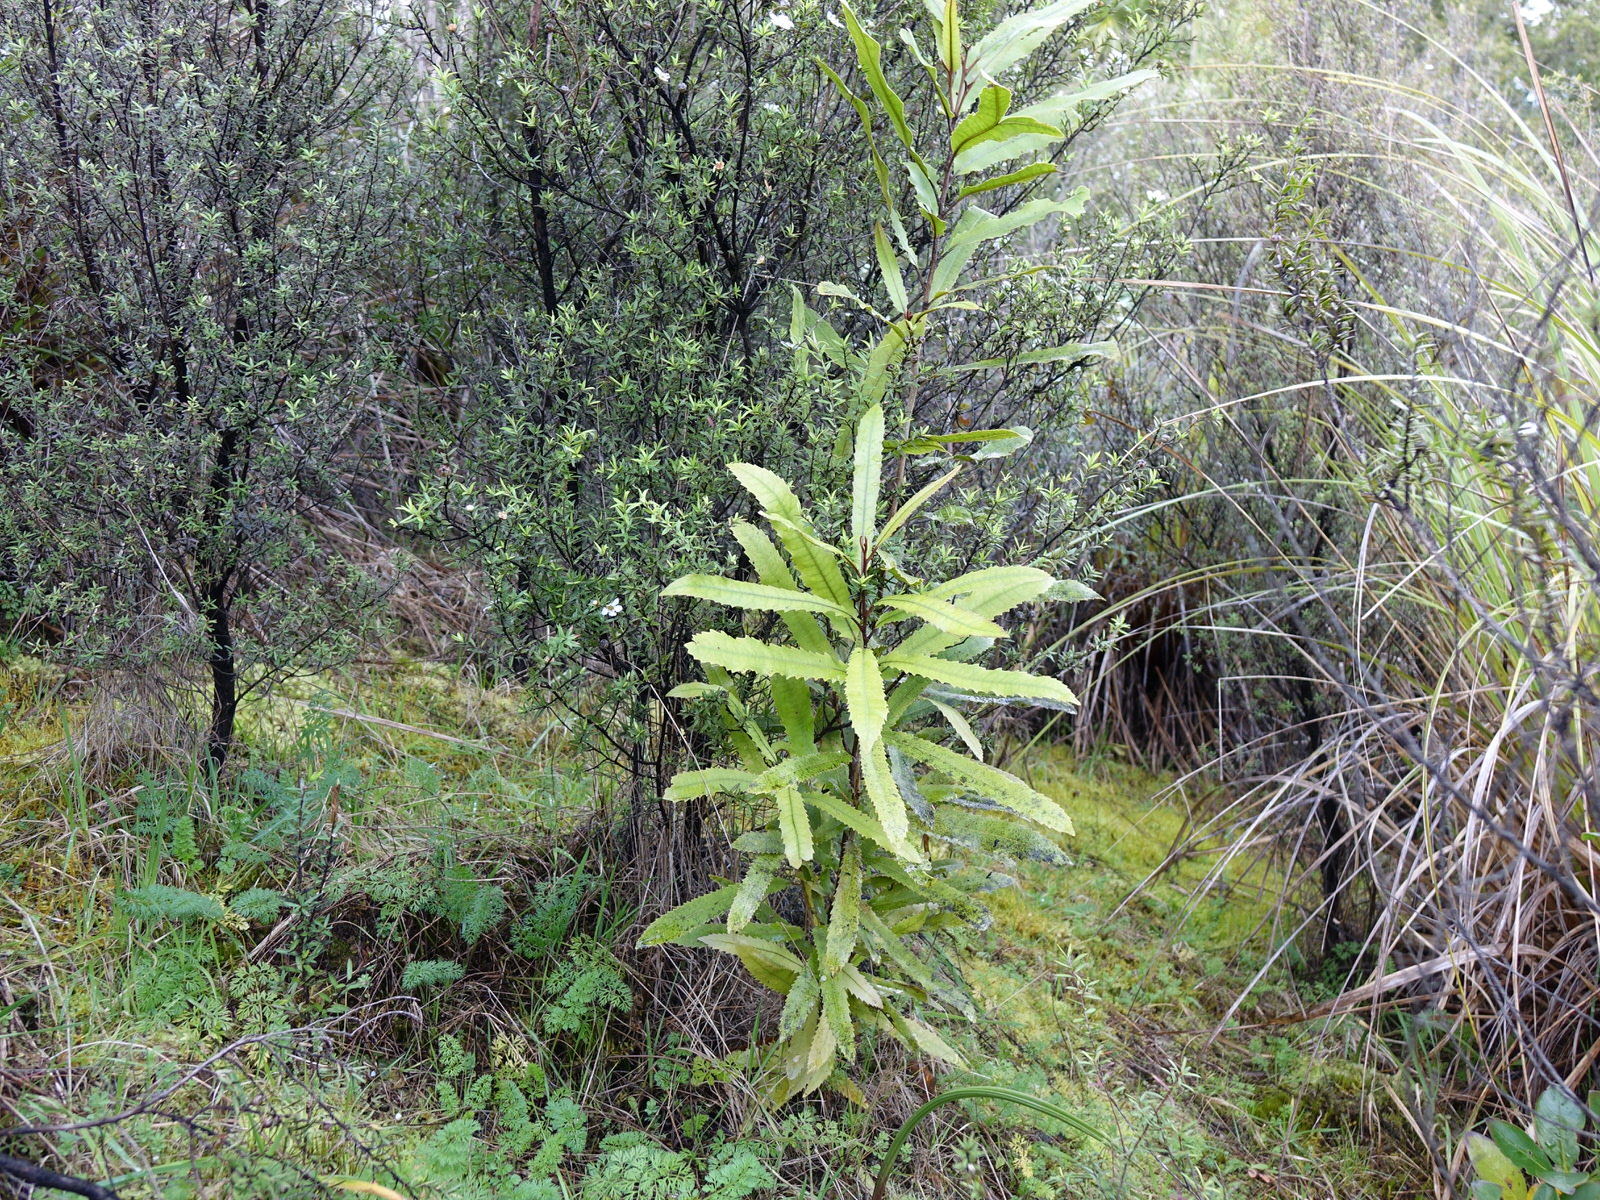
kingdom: Plantae
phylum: Tracheophyta
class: Magnoliopsida
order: Proteales
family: Proteaceae
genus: Knightia
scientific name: Knightia excelsa
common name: New zealand-honeysuckle
